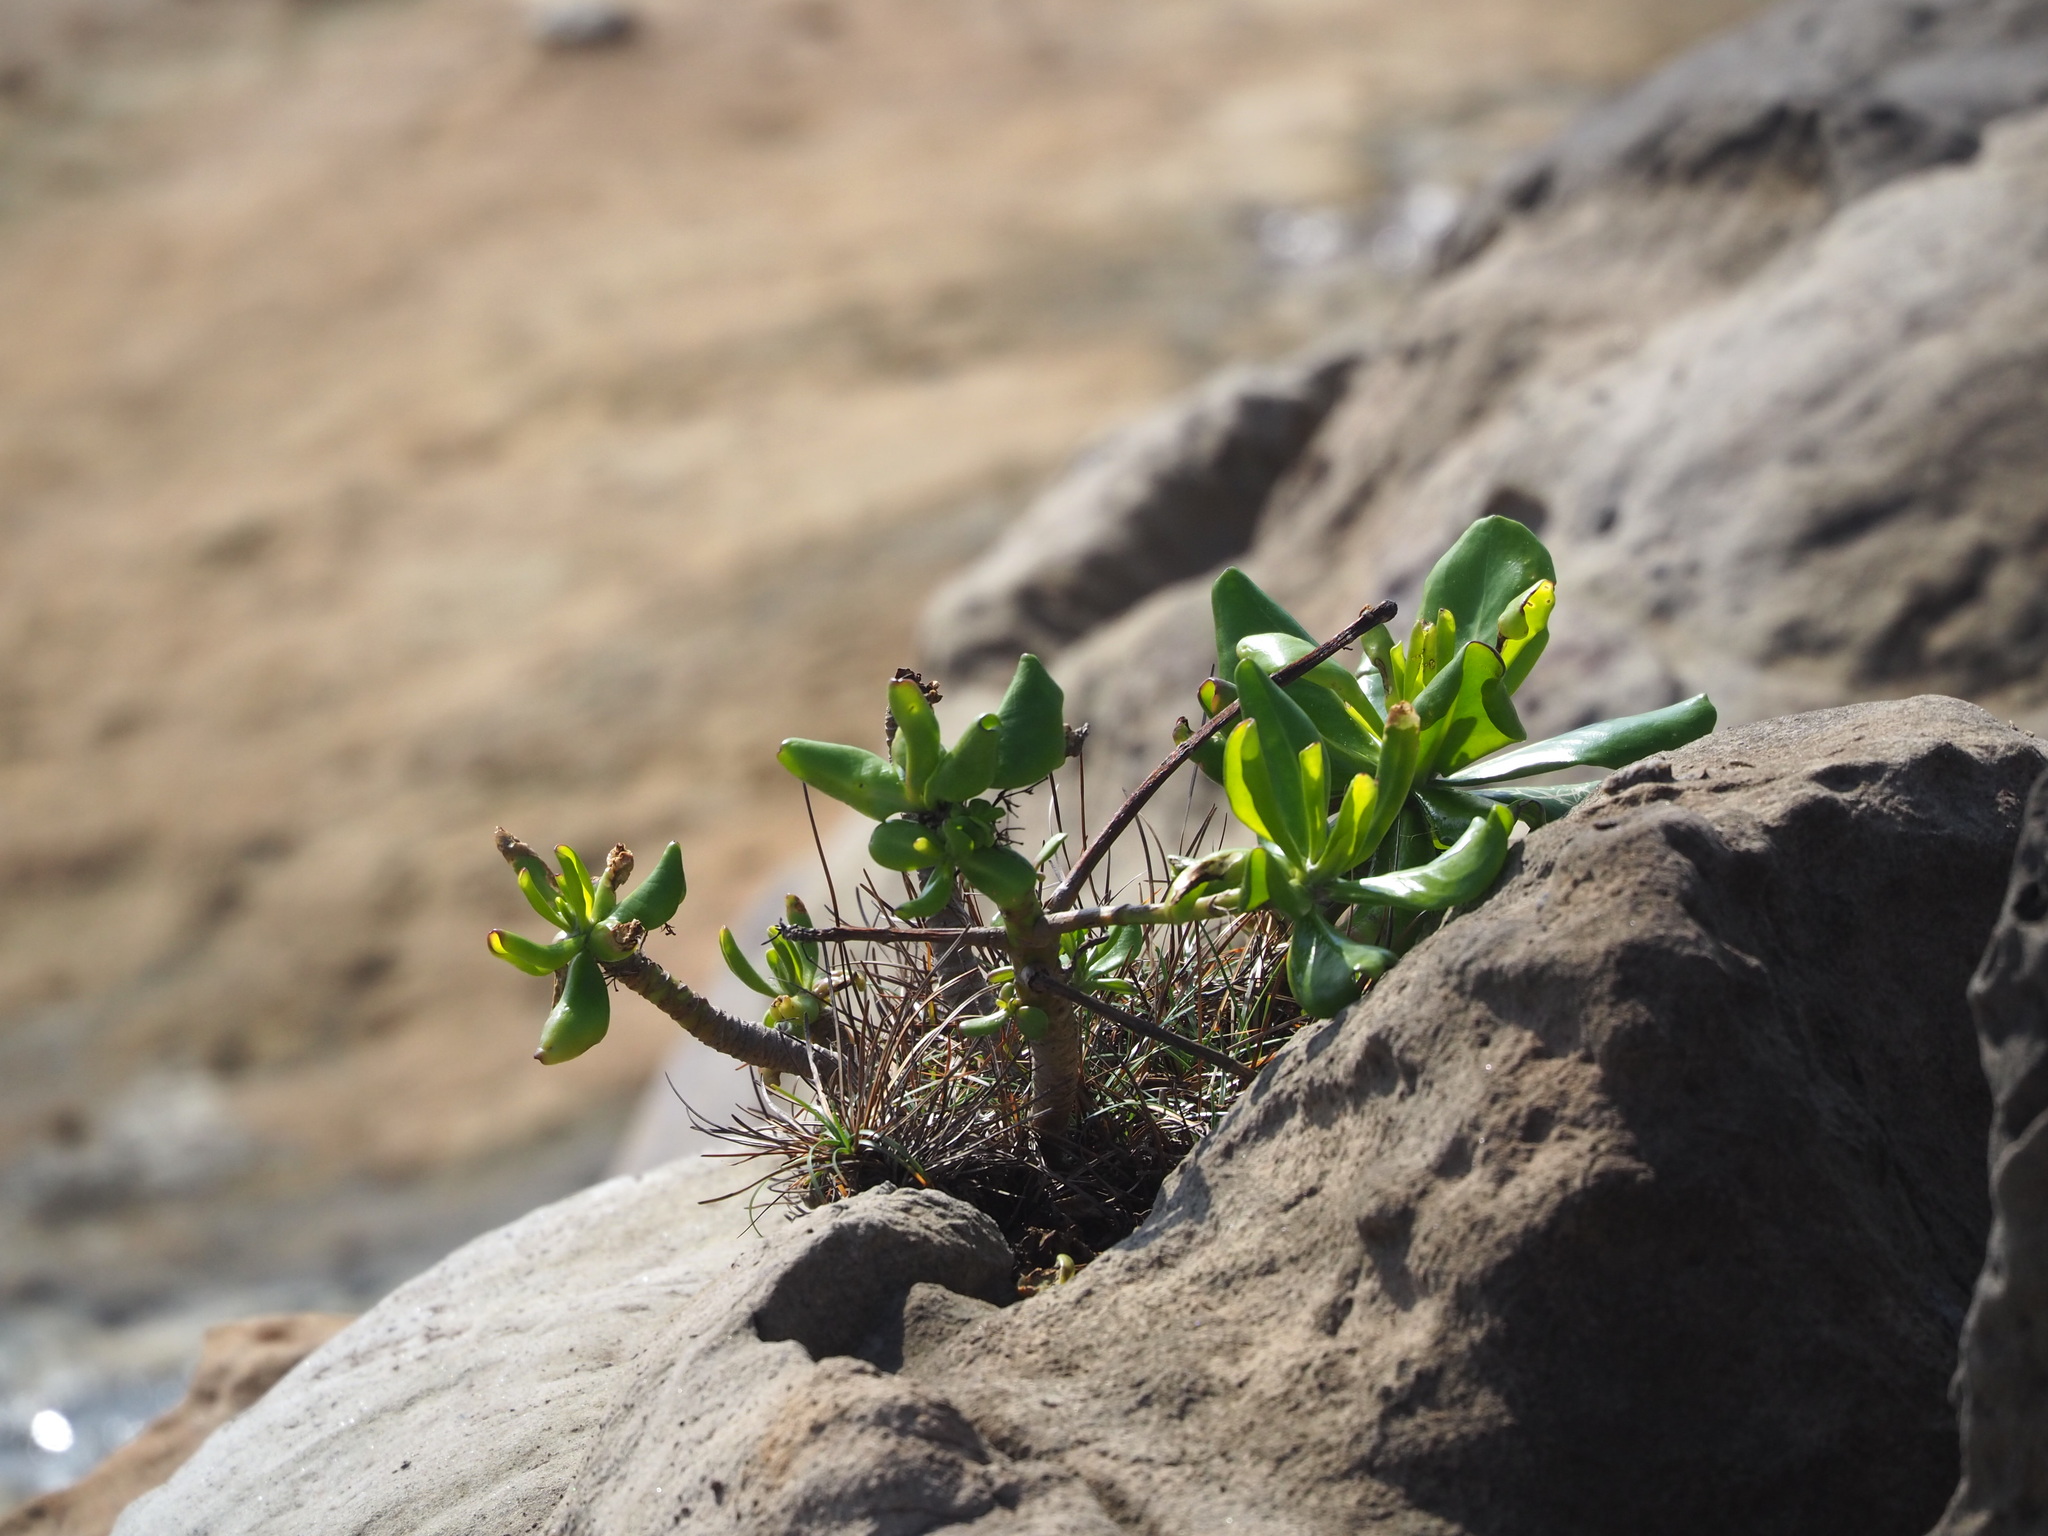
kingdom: Plantae
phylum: Tracheophyta
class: Magnoliopsida
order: Asterales
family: Goodeniaceae
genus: Scaevola
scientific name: Scaevola taccada
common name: Sea lettucetree
